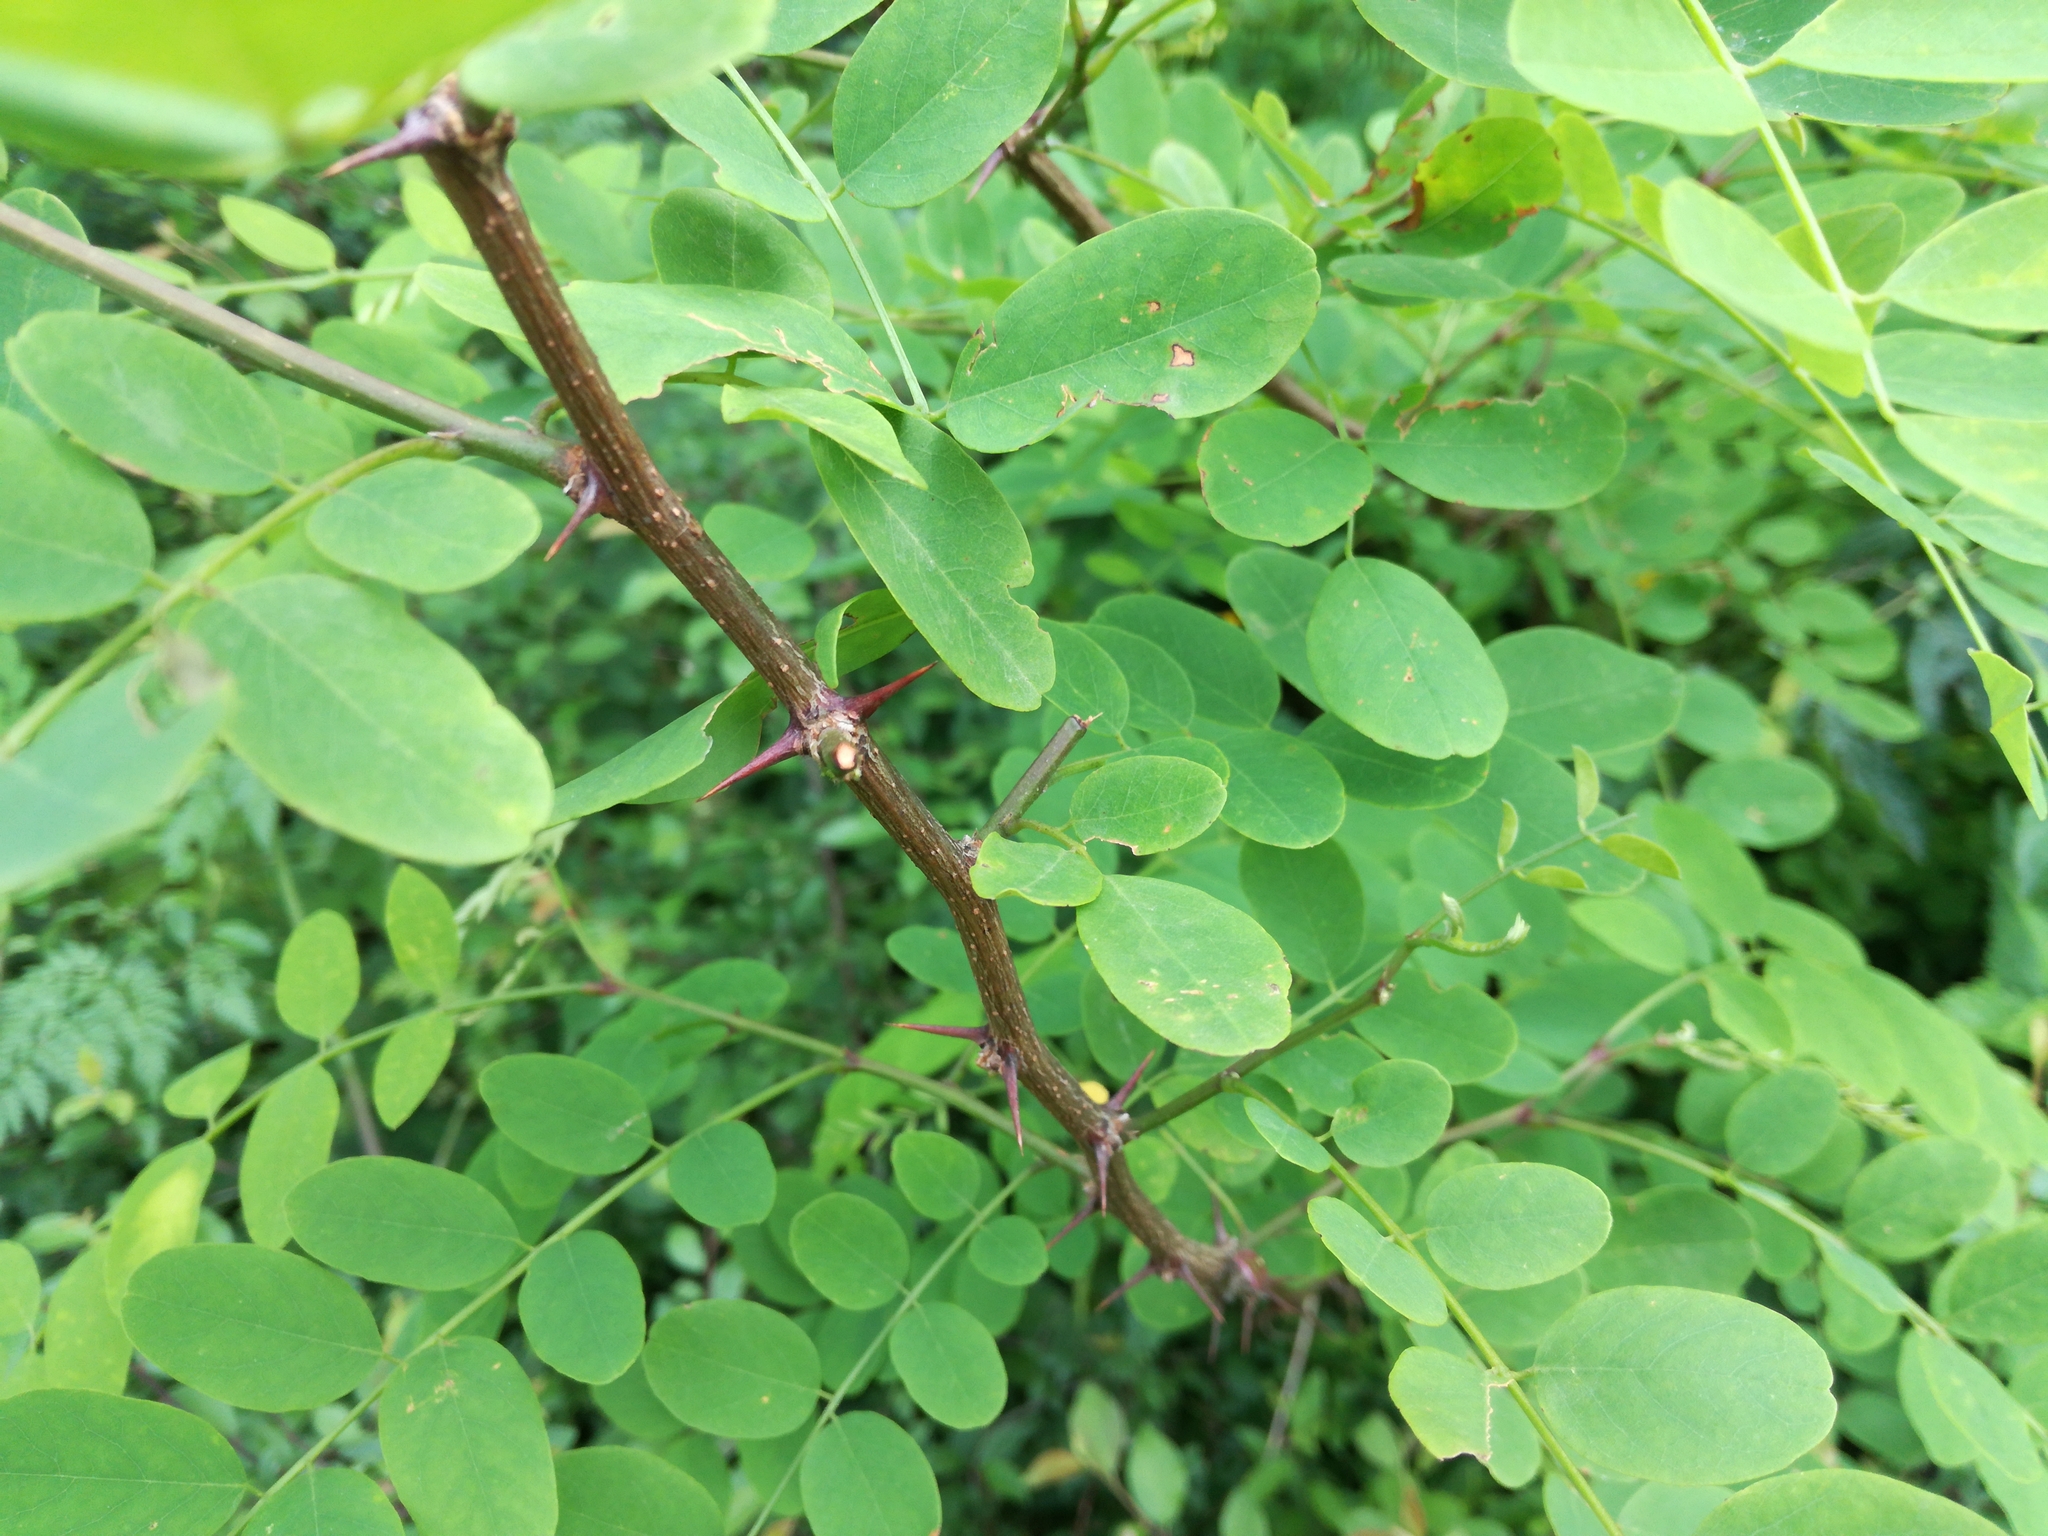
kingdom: Plantae
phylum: Tracheophyta
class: Magnoliopsida
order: Fabales
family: Fabaceae
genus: Robinia
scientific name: Robinia pseudoacacia
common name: Black locust
